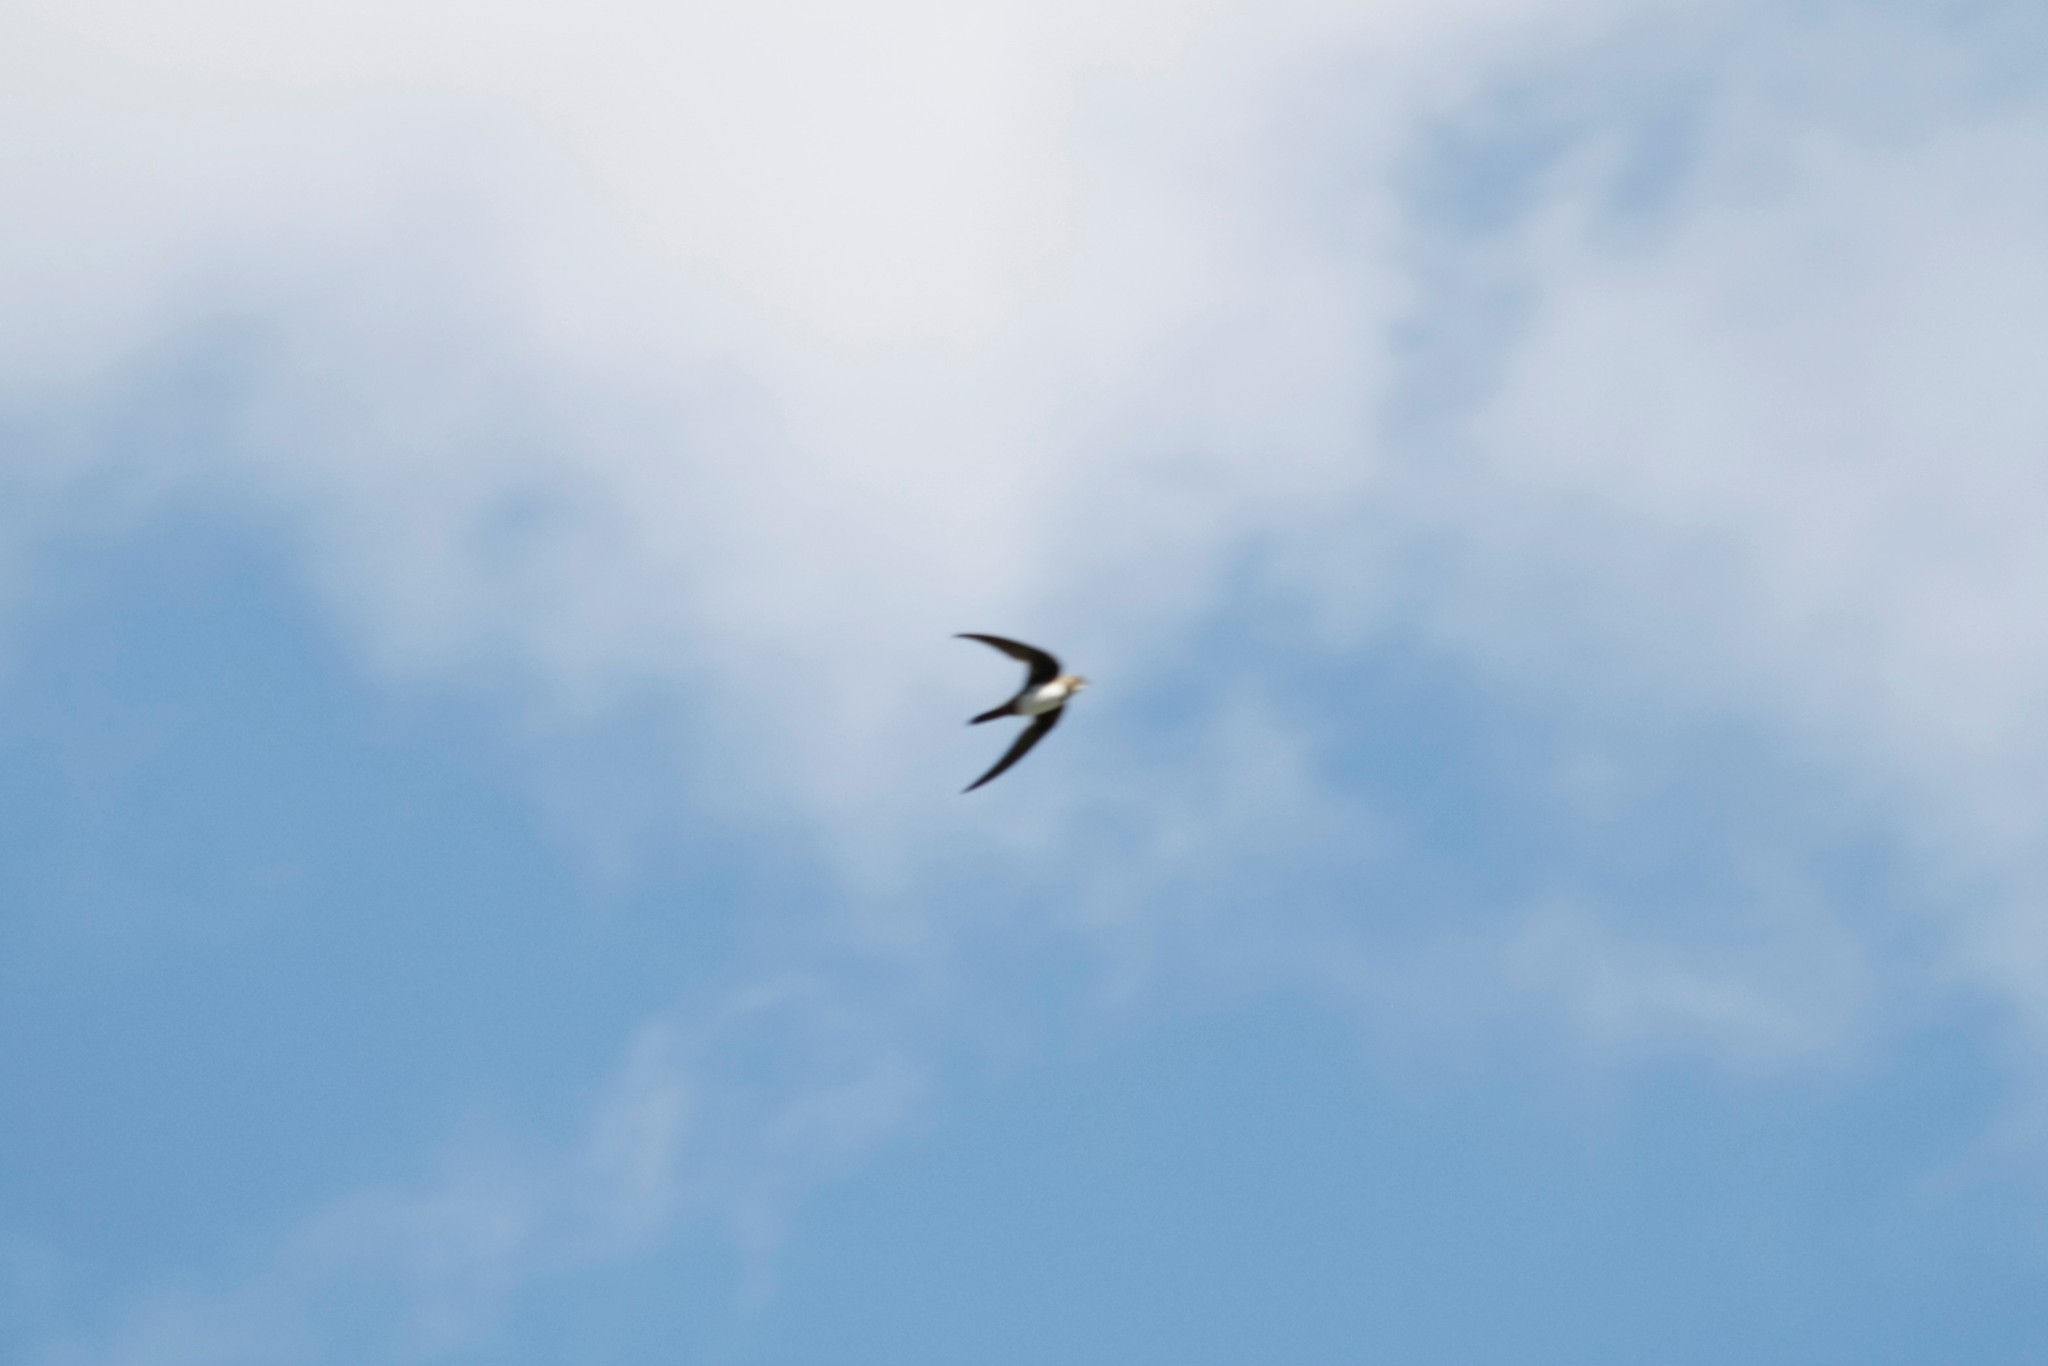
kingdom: Animalia
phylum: Chordata
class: Aves
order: Apodiformes
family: Apodidae
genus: Tachymarptis
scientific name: Tachymarptis melba
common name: Alpine swift
